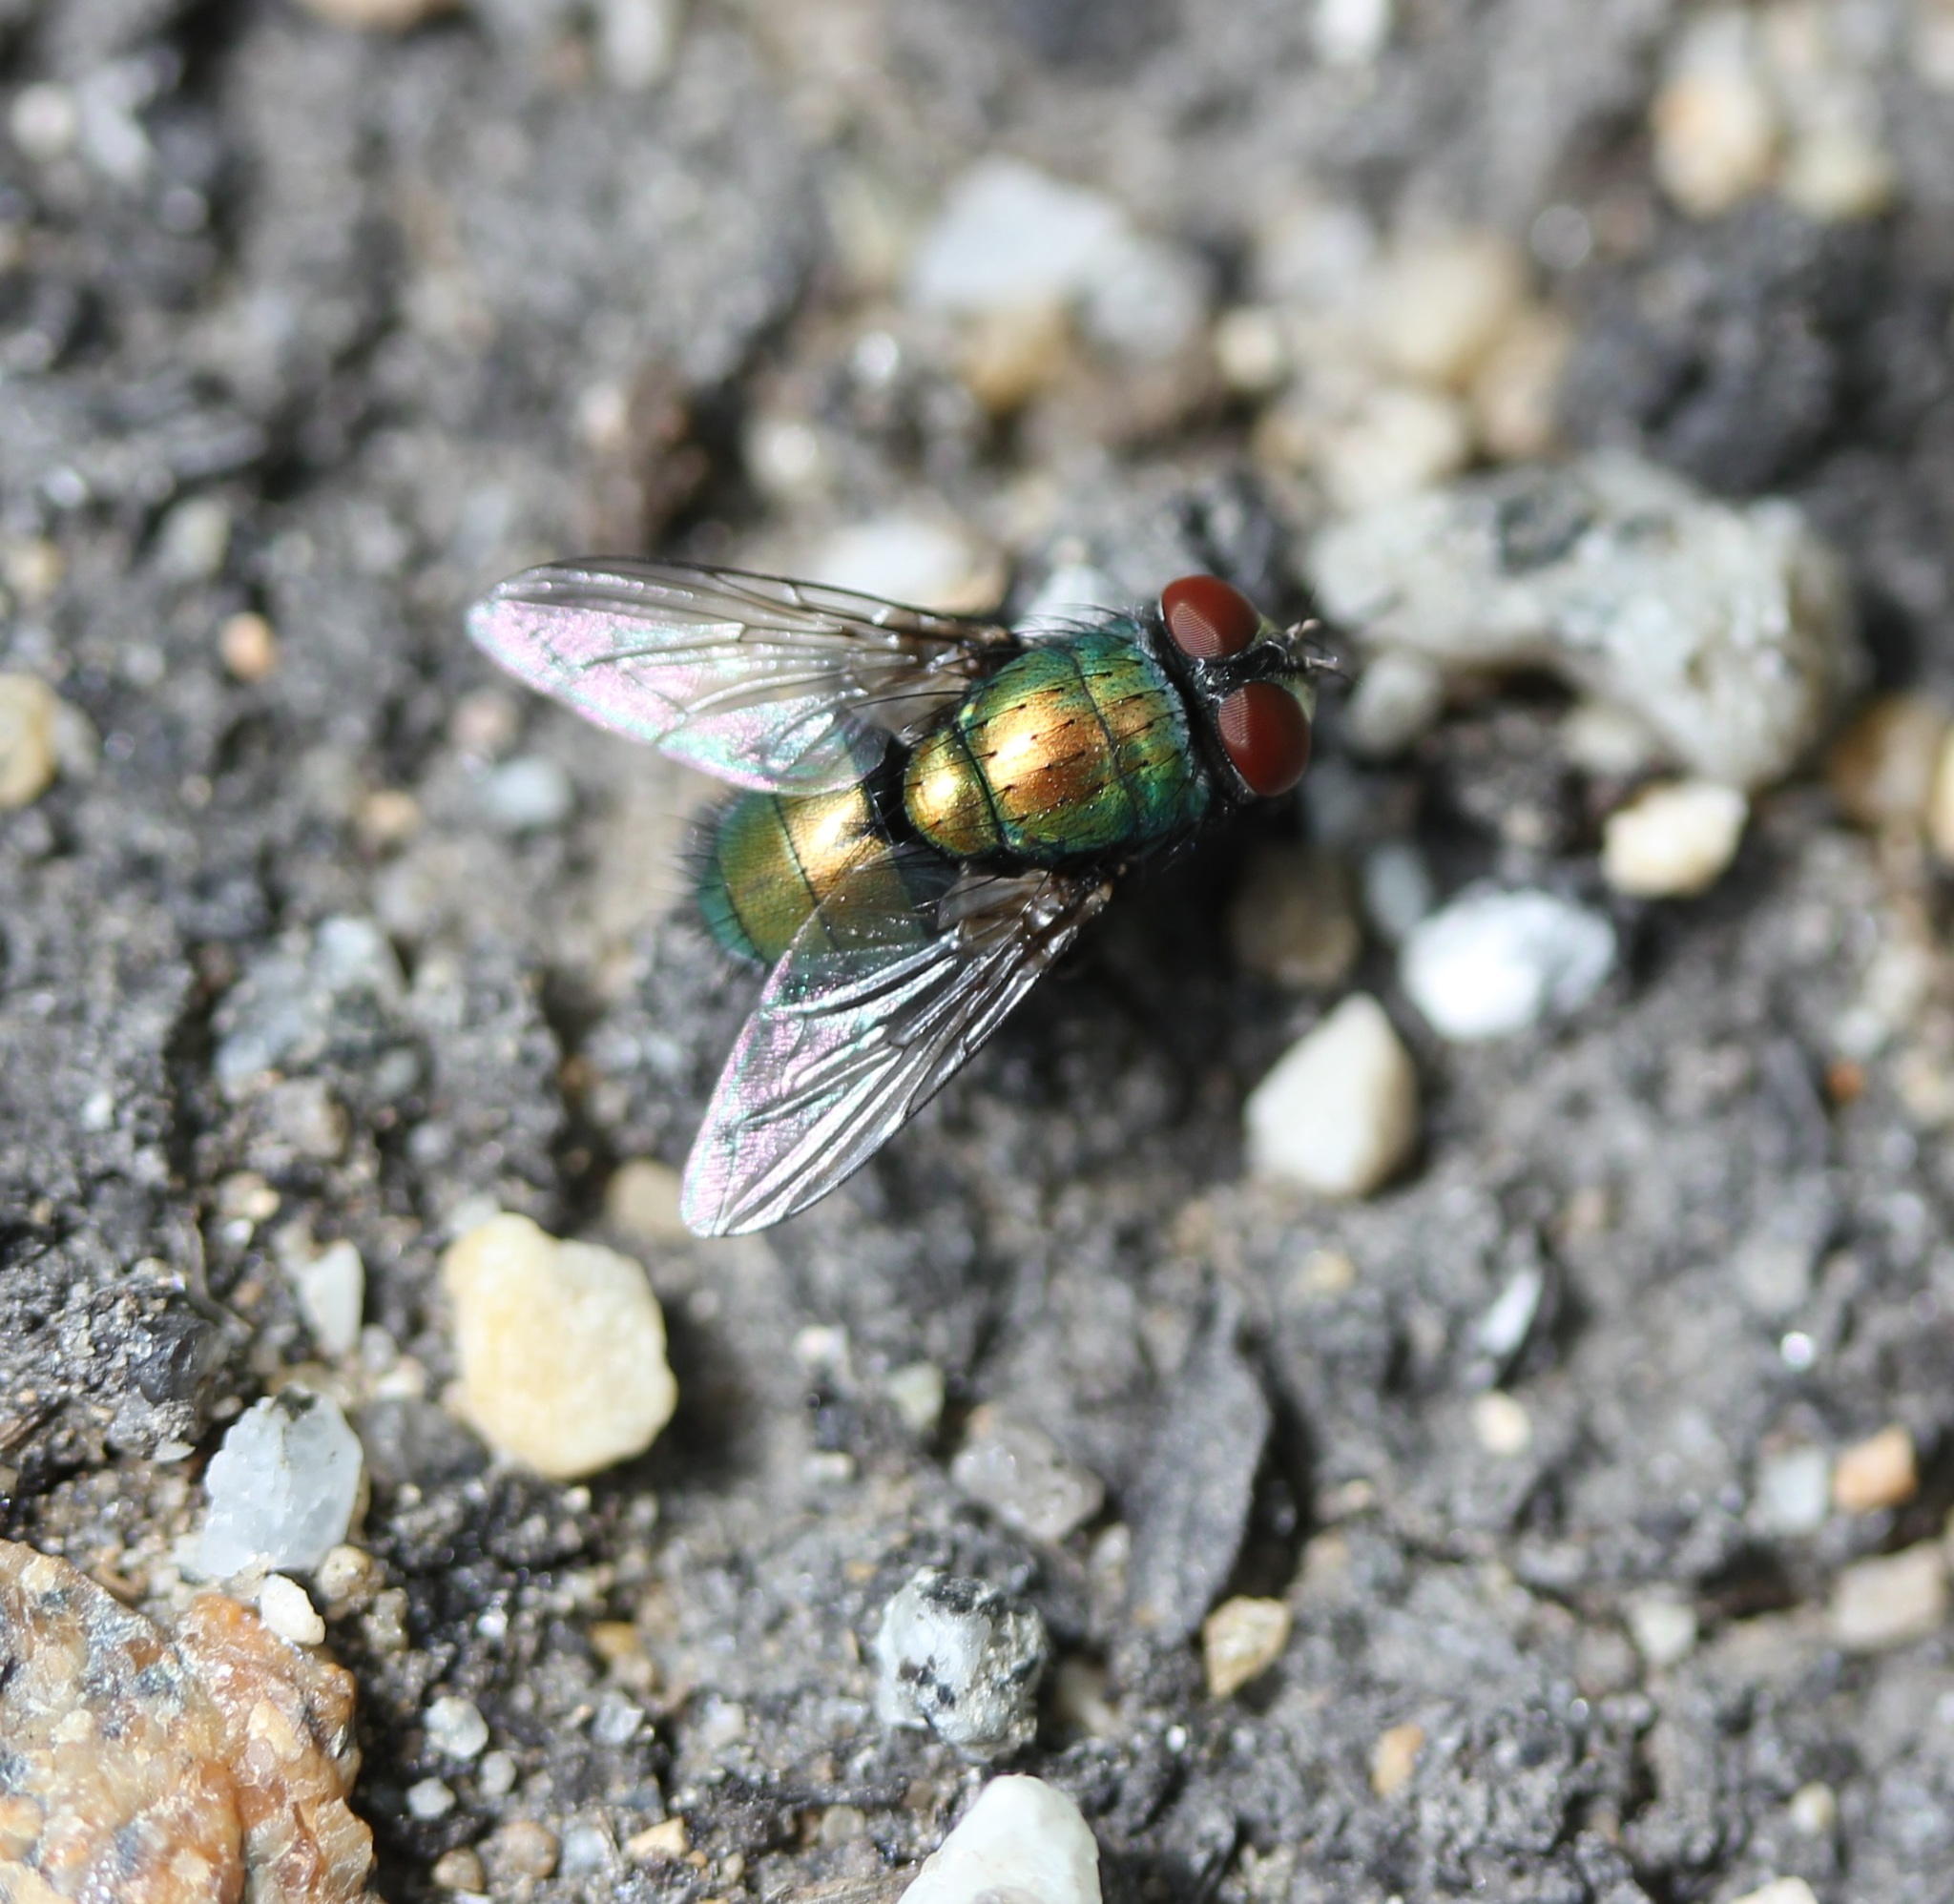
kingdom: Animalia
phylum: Arthropoda
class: Insecta
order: Diptera
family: Calliphoridae
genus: Lucilia
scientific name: Lucilia sericata
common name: Blow fly
